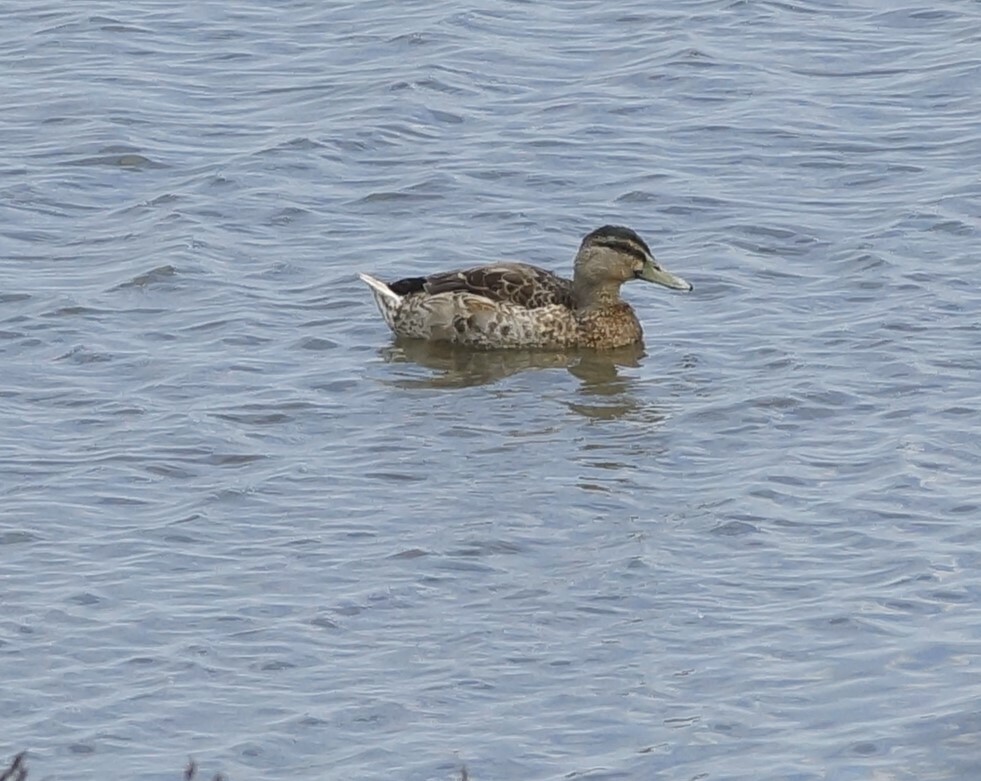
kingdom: Animalia
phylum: Chordata
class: Aves
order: Anseriformes
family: Anatidae
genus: Anas
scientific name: Anas
